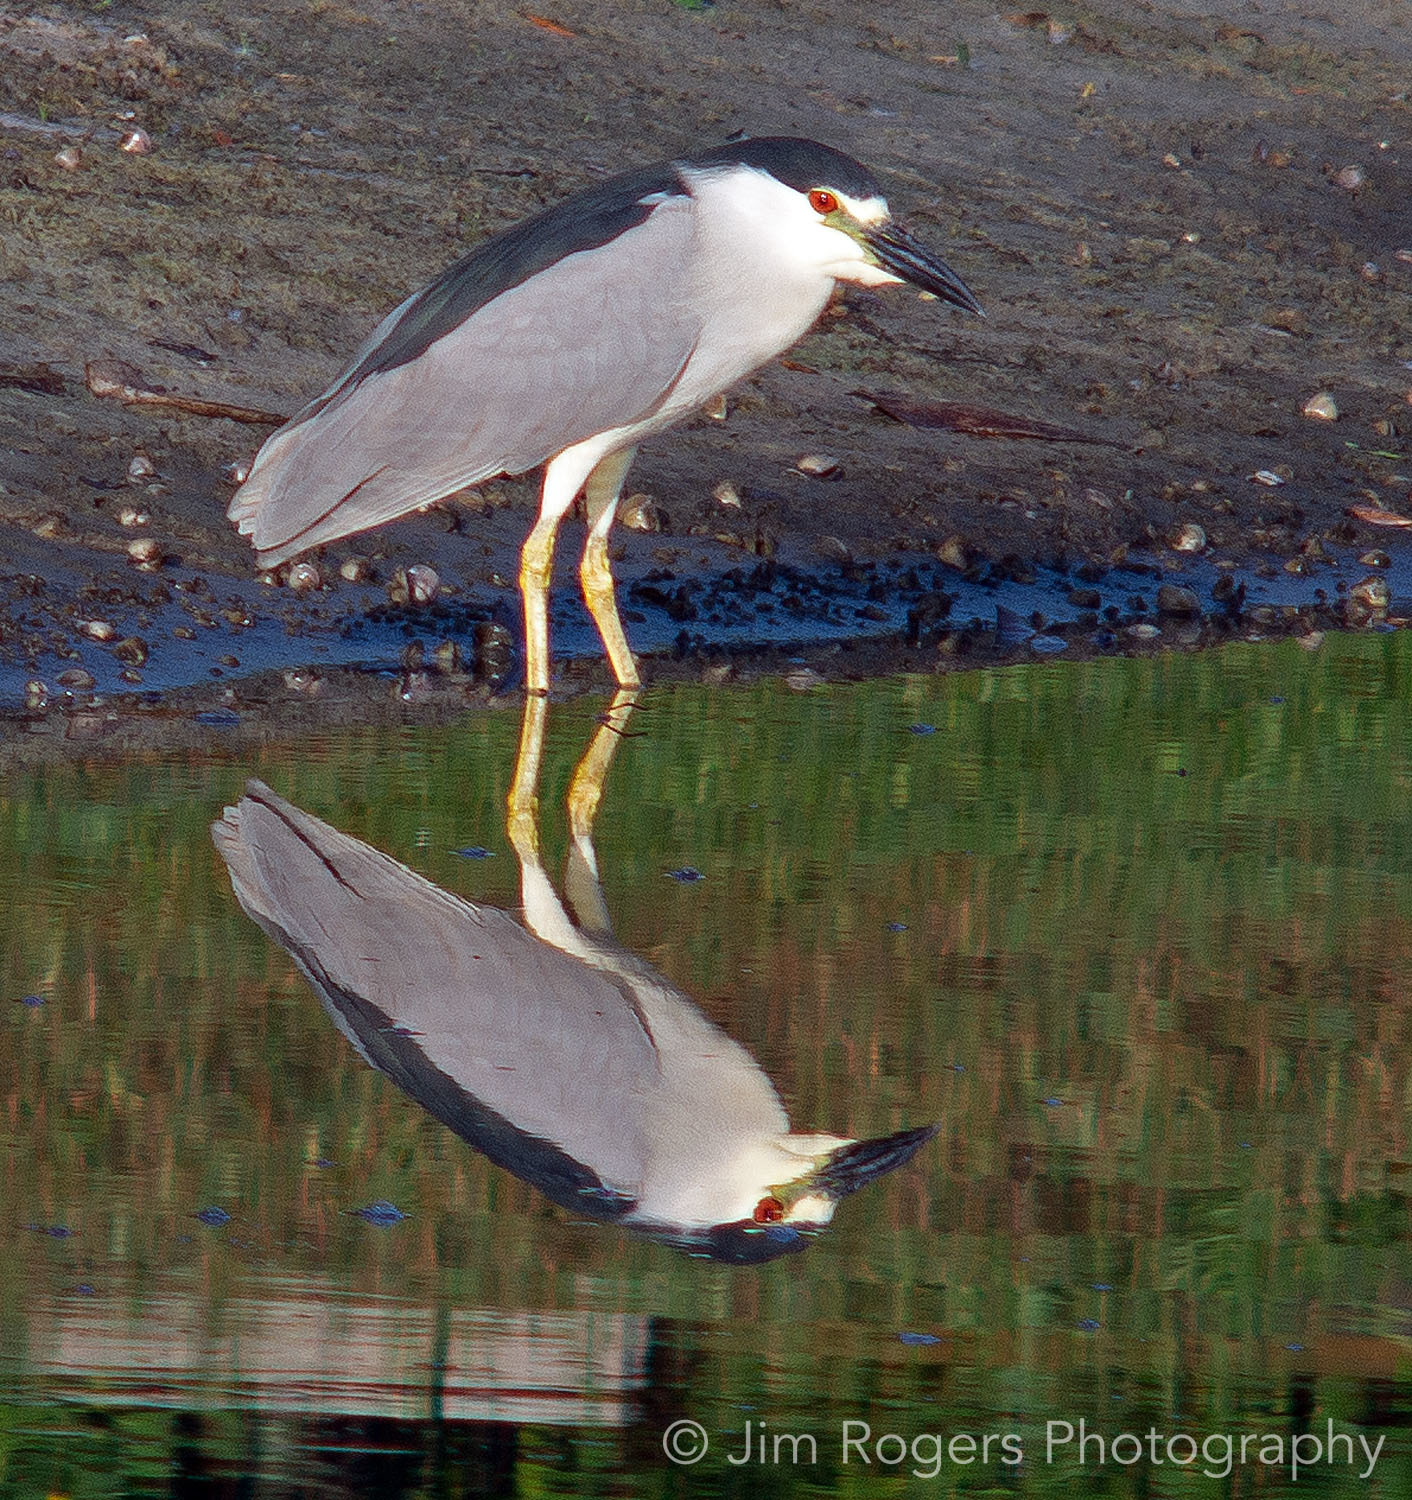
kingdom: Animalia
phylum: Chordata
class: Aves
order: Pelecaniformes
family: Ardeidae
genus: Nycticorax
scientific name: Nycticorax nycticorax
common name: Black-crowned night heron
